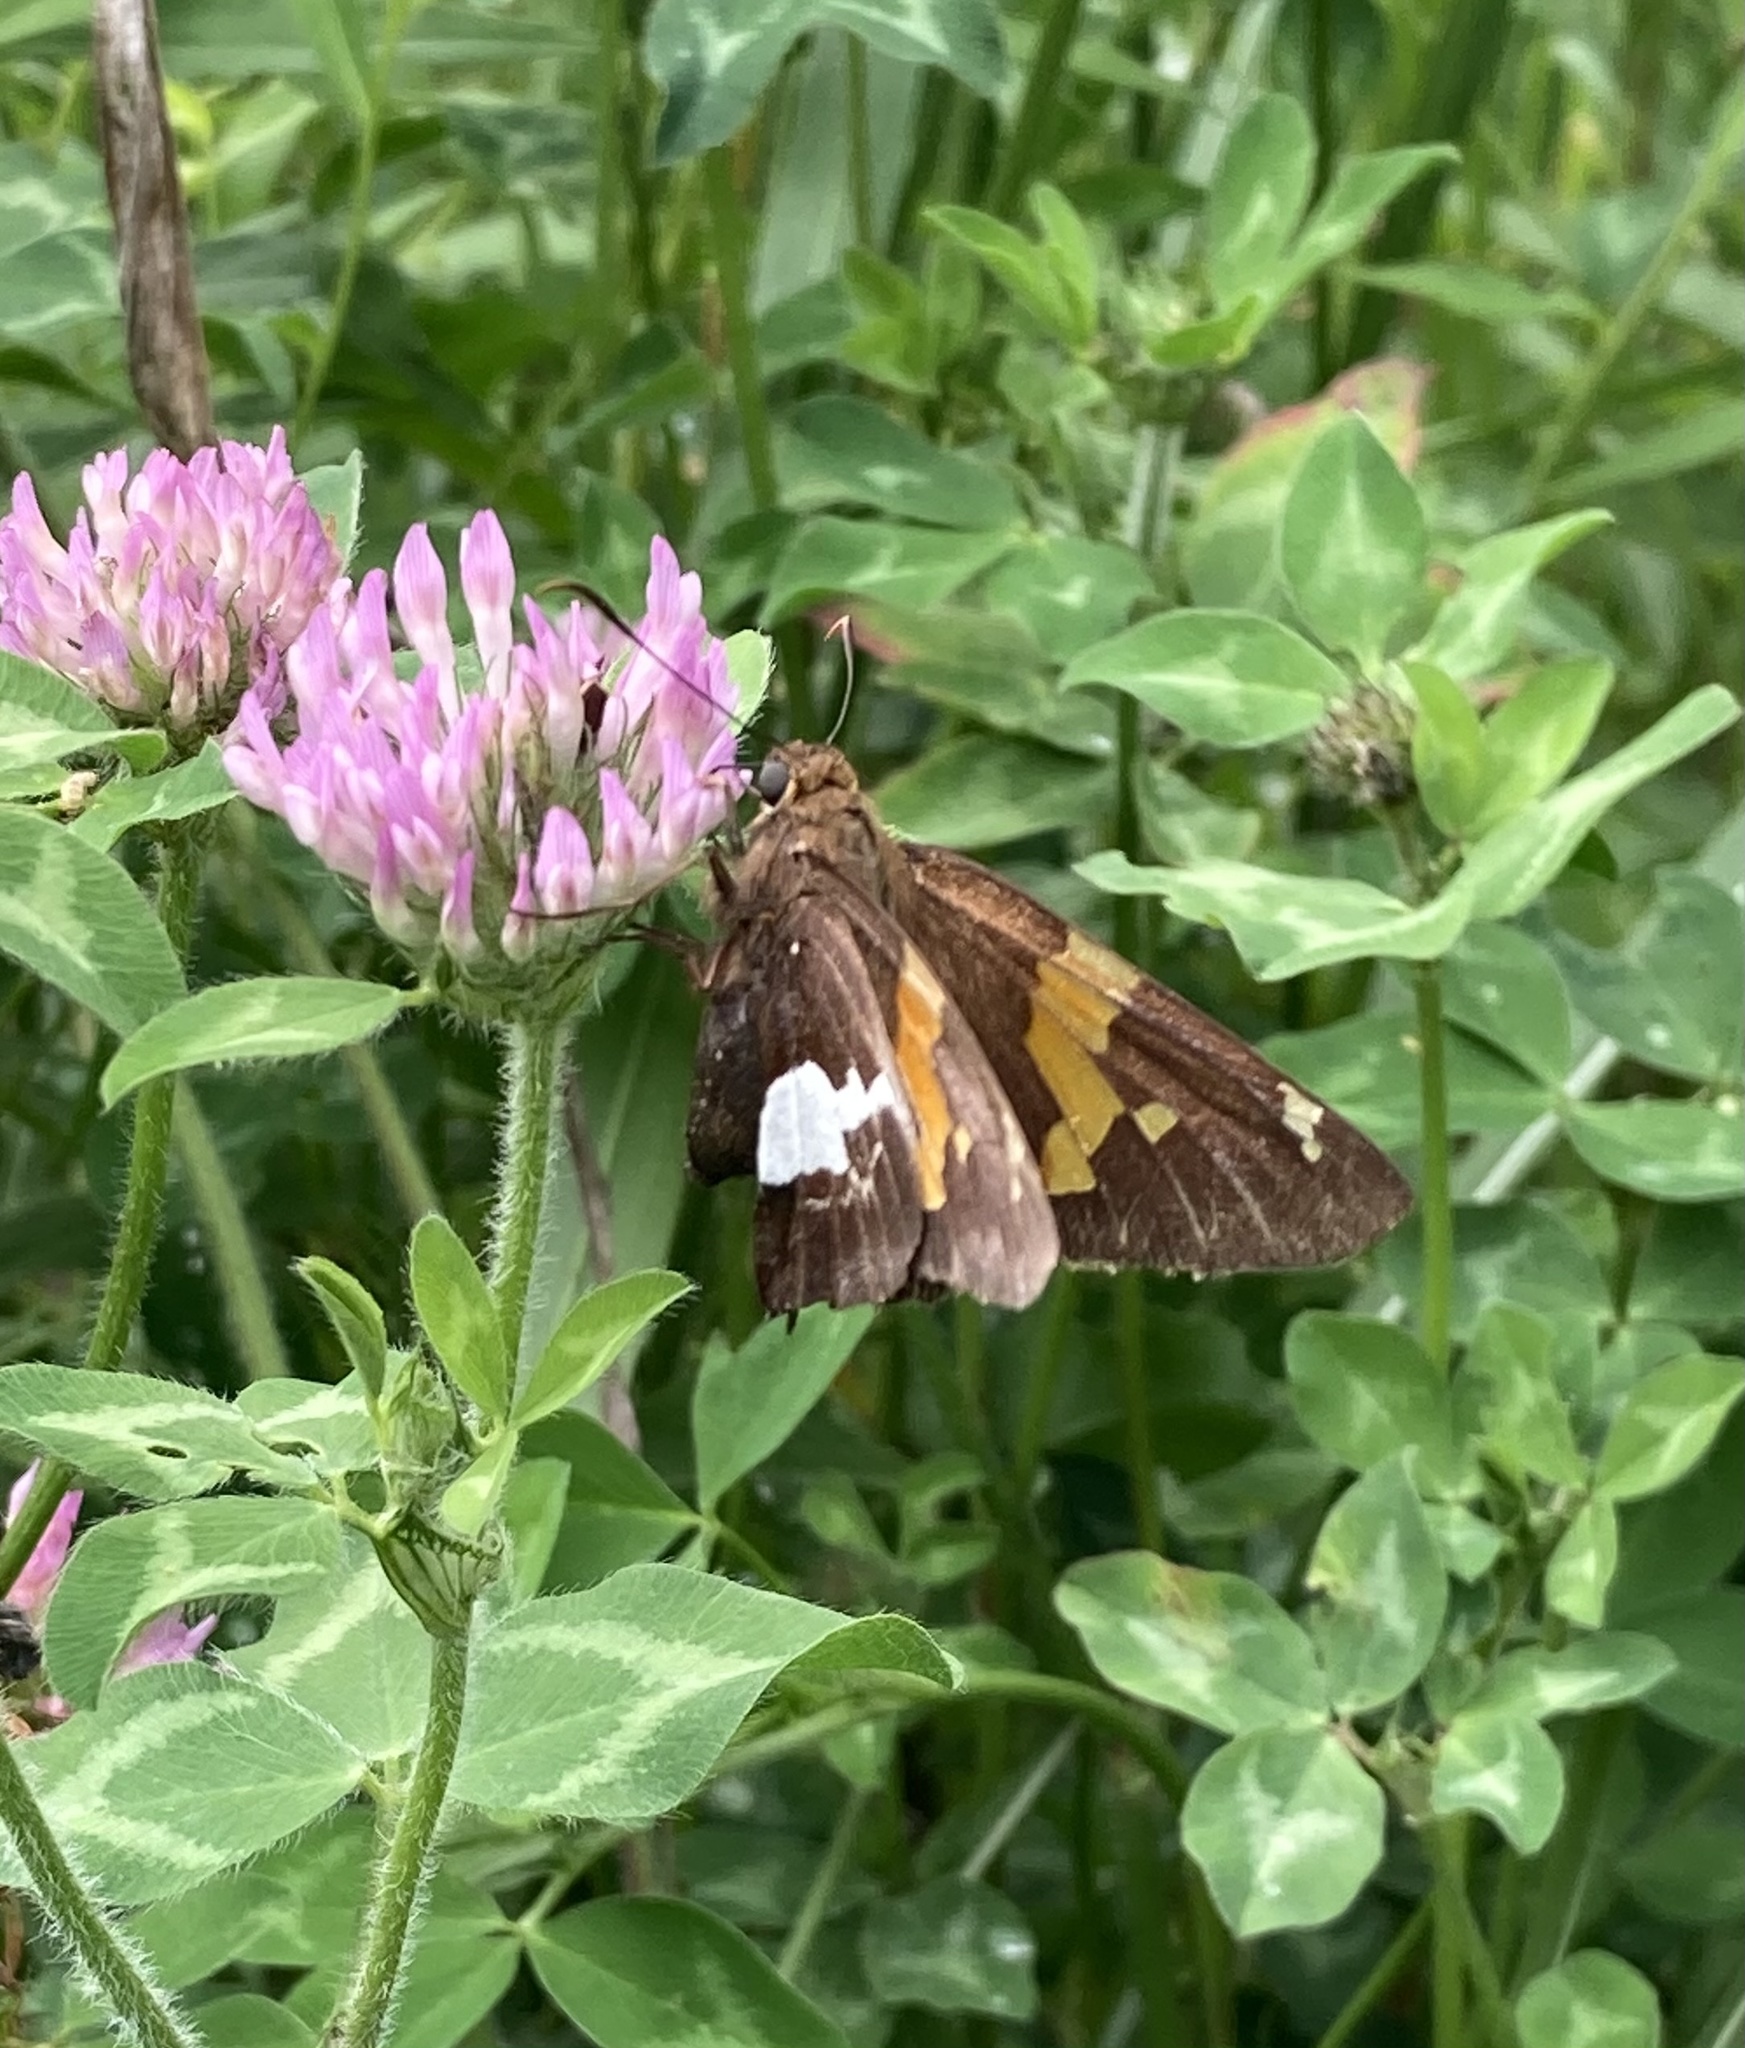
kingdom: Animalia
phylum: Arthropoda
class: Insecta
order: Lepidoptera
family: Hesperiidae
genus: Epargyreus
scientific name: Epargyreus clarus
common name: Silver-spotted skipper
